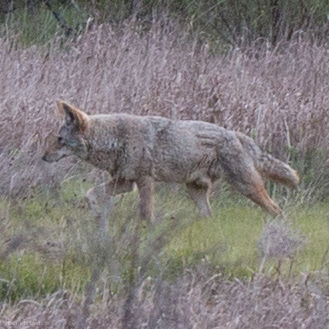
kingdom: Animalia
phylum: Chordata
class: Mammalia
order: Carnivora
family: Canidae
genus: Canis
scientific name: Canis latrans
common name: Coyote
